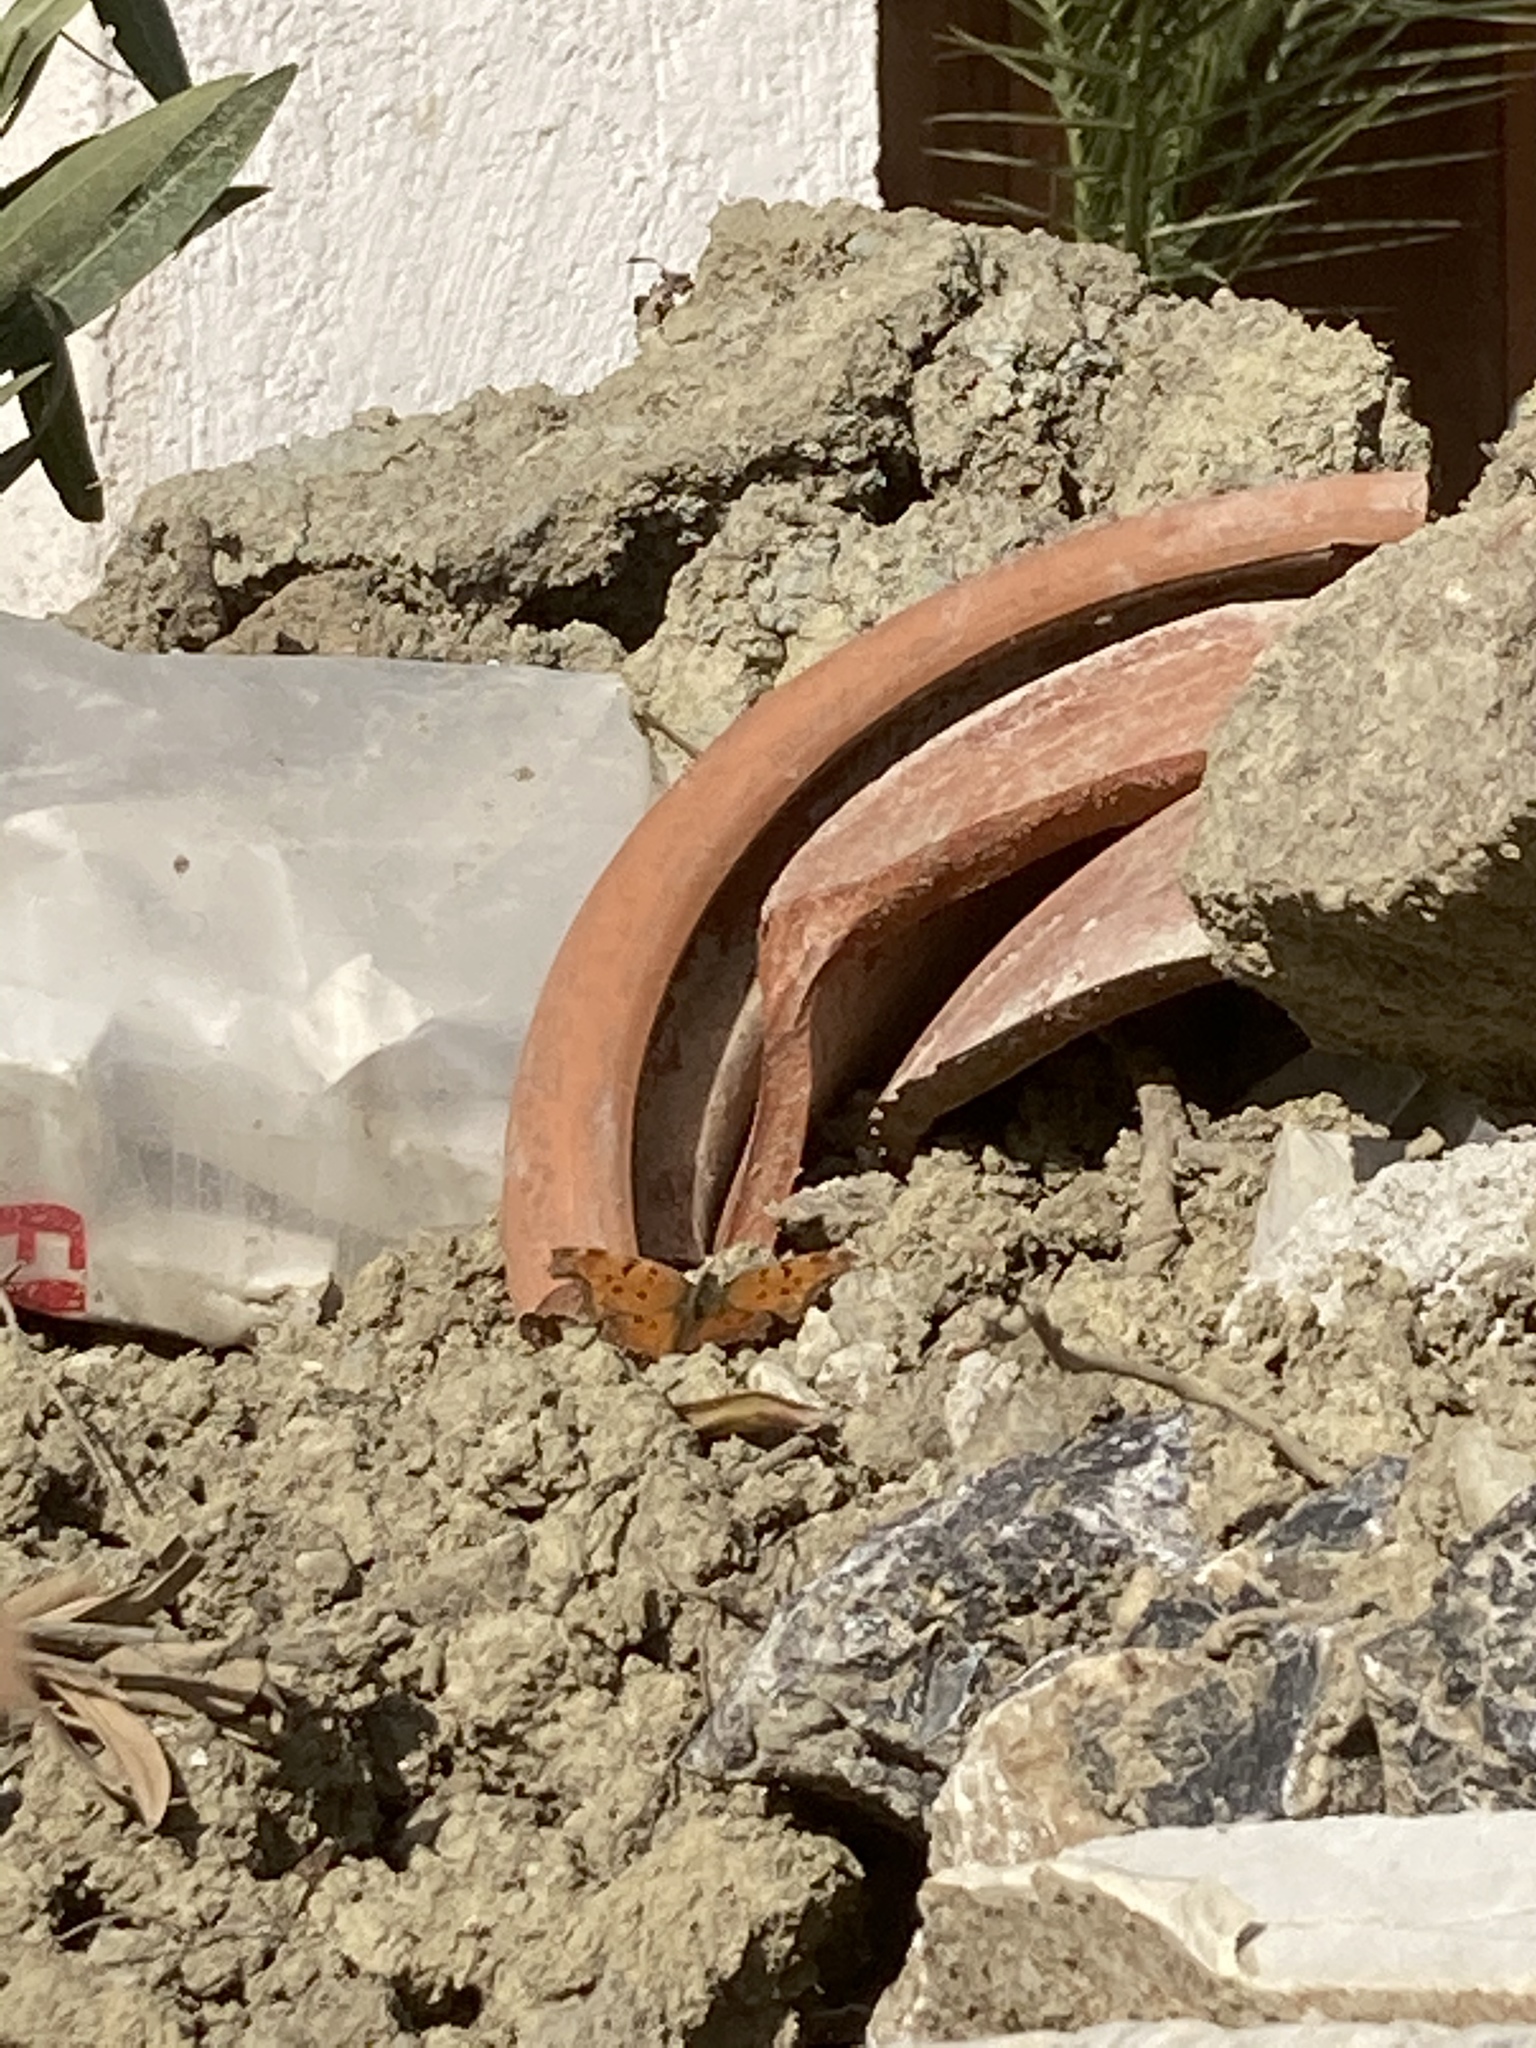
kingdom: Animalia
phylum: Arthropoda
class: Insecta
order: Lepidoptera
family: Nymphalidae
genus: Polygonia
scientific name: Polygonia egea
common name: Southern comma
